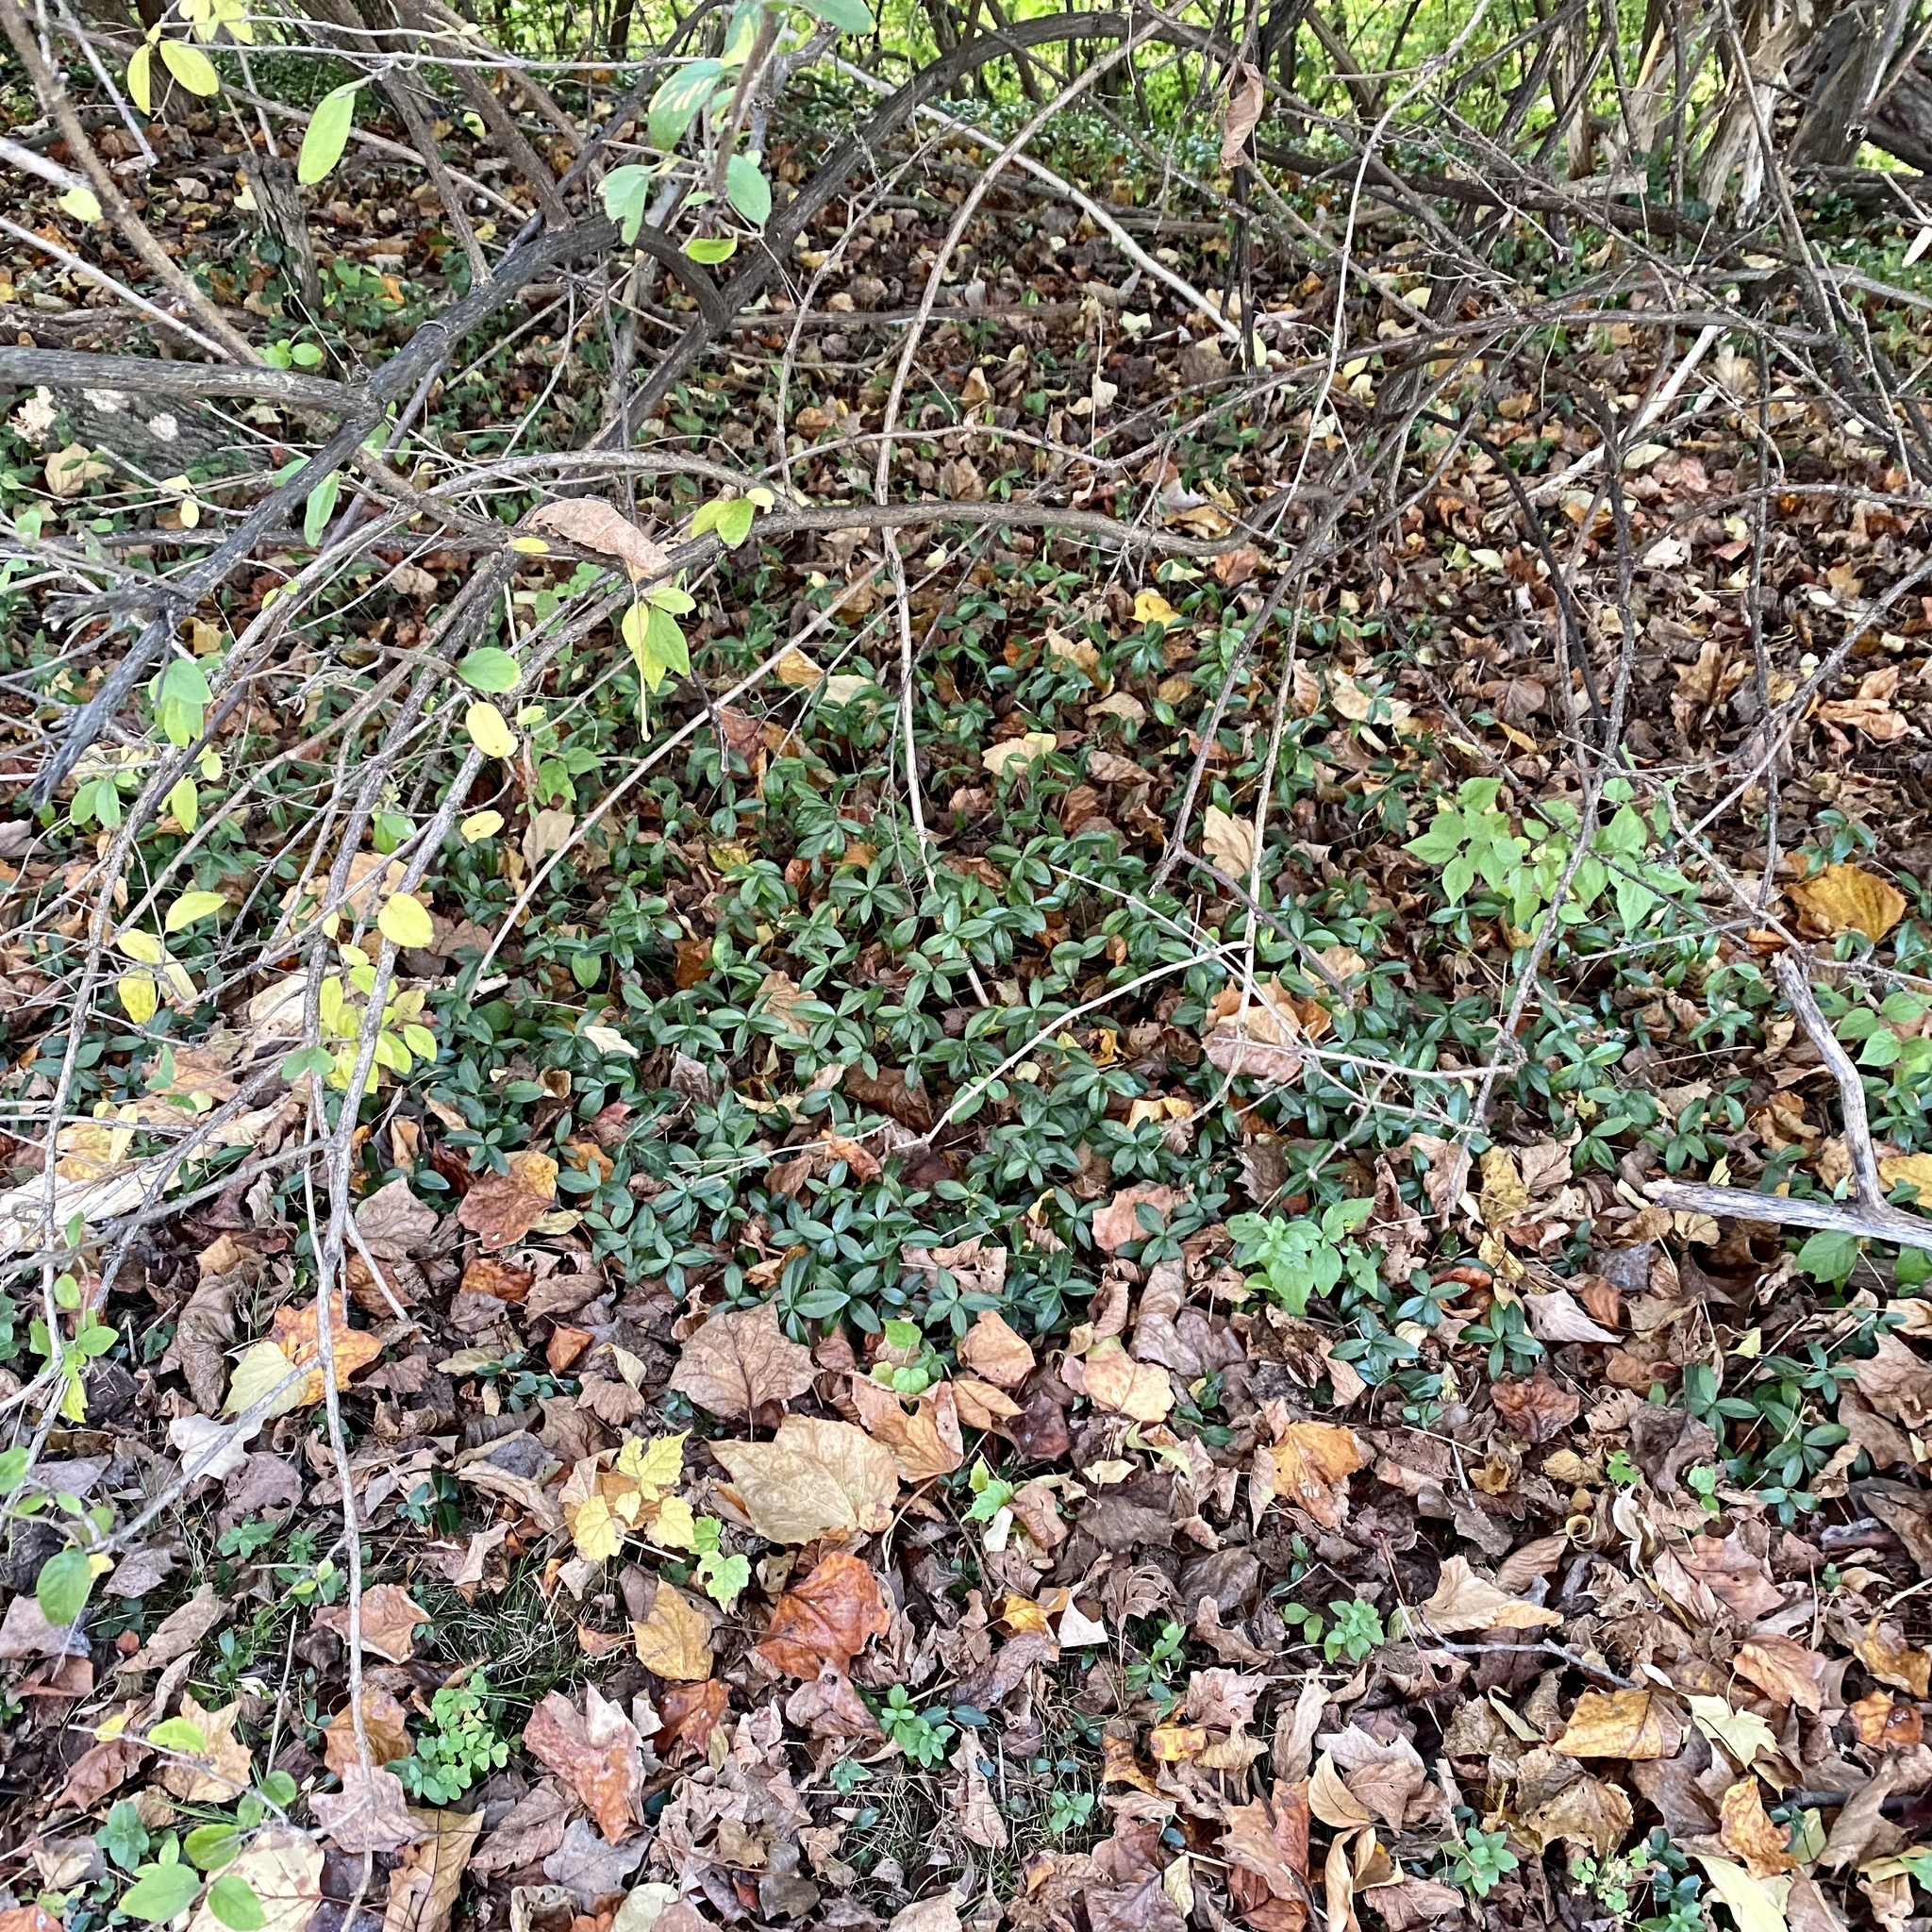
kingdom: Plantae
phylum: Tracheophyta
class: Magnoliopsida
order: Gentianales
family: Apocynaceae
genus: Vinca
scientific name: Vinca minor
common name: Lesser periwinkle
